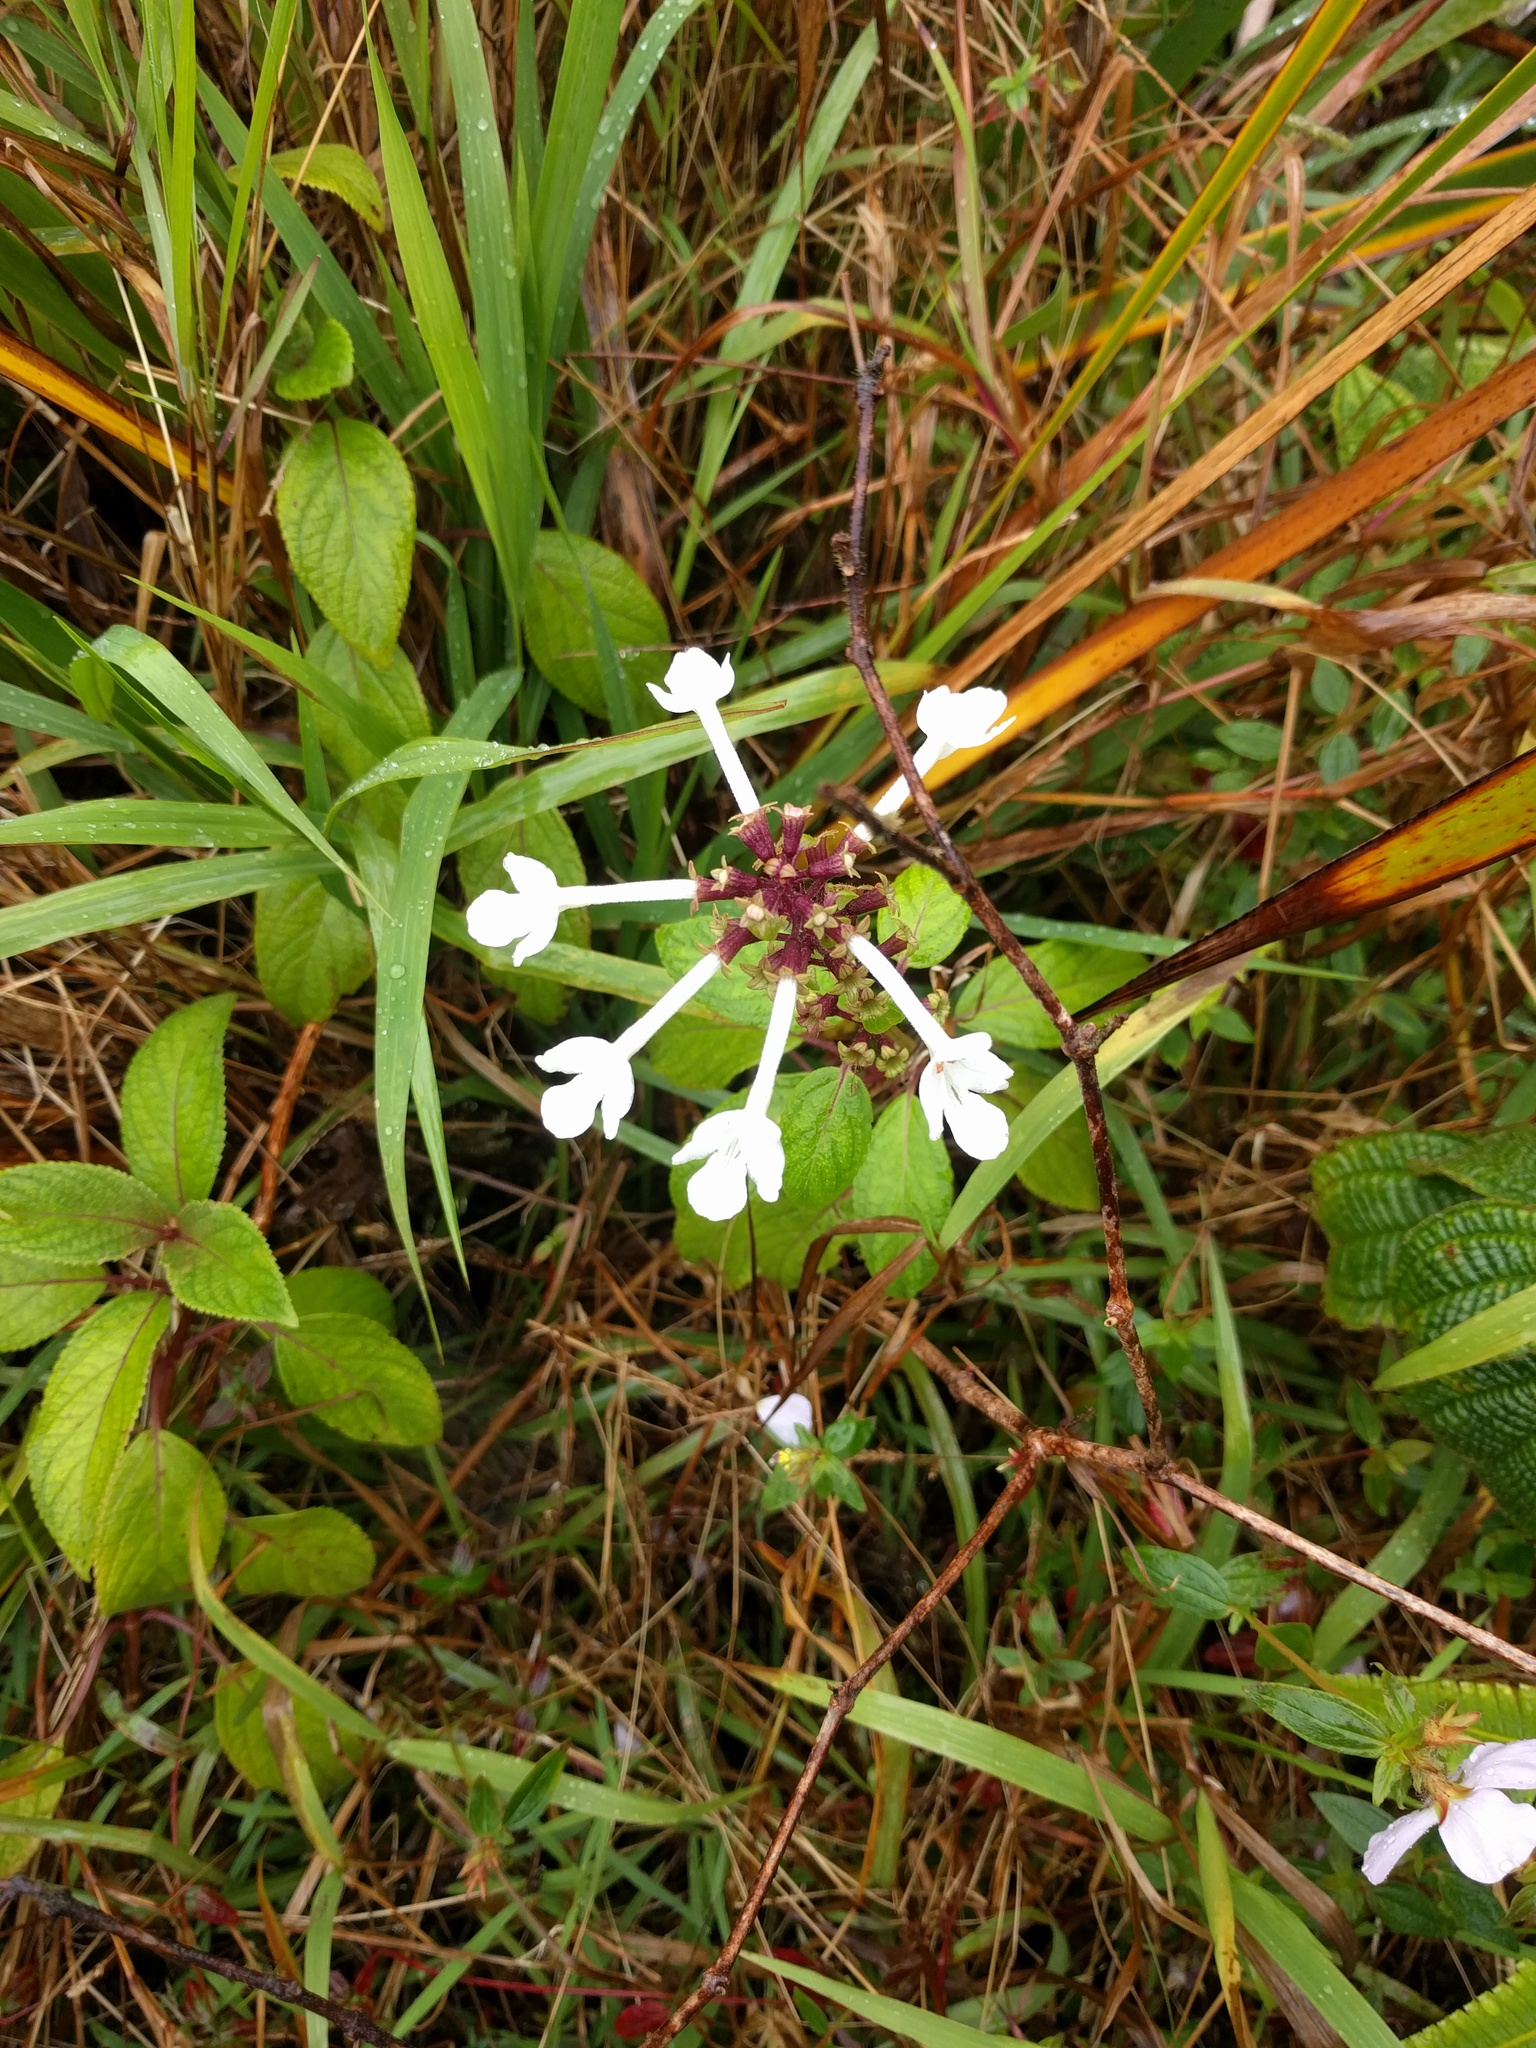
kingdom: Plantae
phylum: Tracheophyta
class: Magnoliopsida
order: Lamiales
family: Lamiaceae
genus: Phyllostegia
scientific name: Phyllostegia grandiflora
